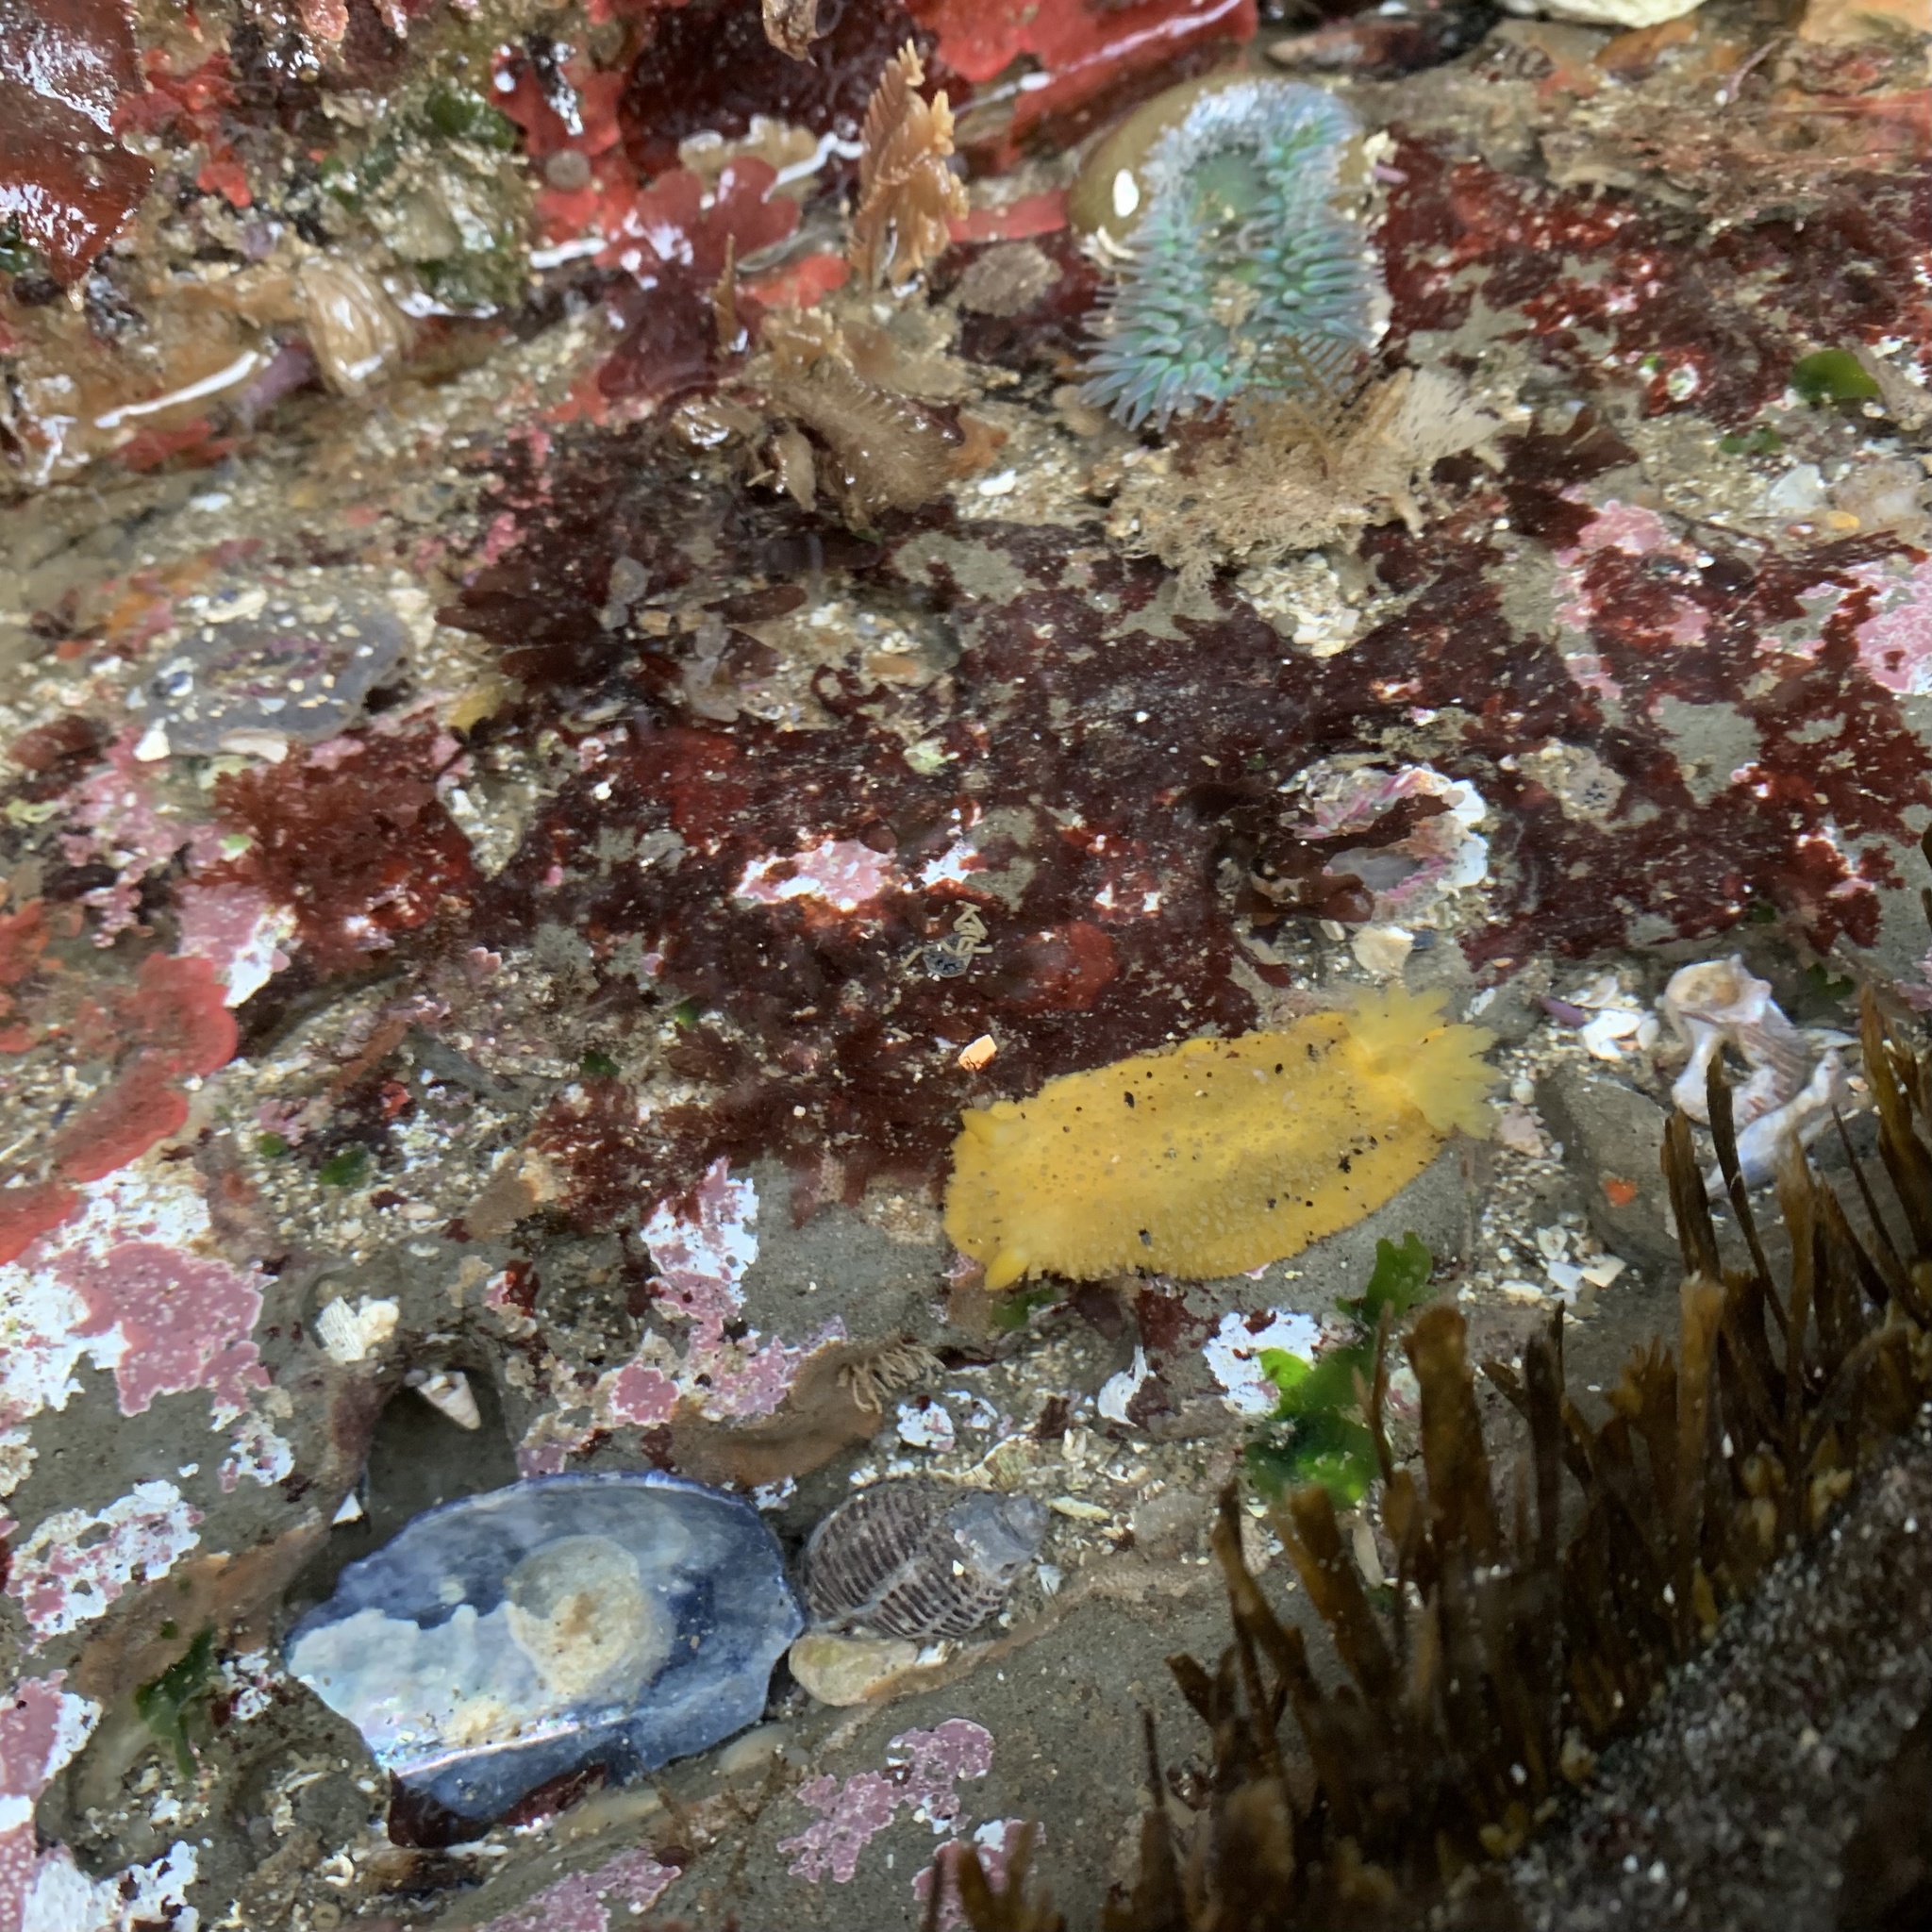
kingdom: Animalia
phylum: Mollusca
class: Gastropoda
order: Nudibranchia
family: Dorididae
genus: Doris
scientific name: Doris montereyensis
